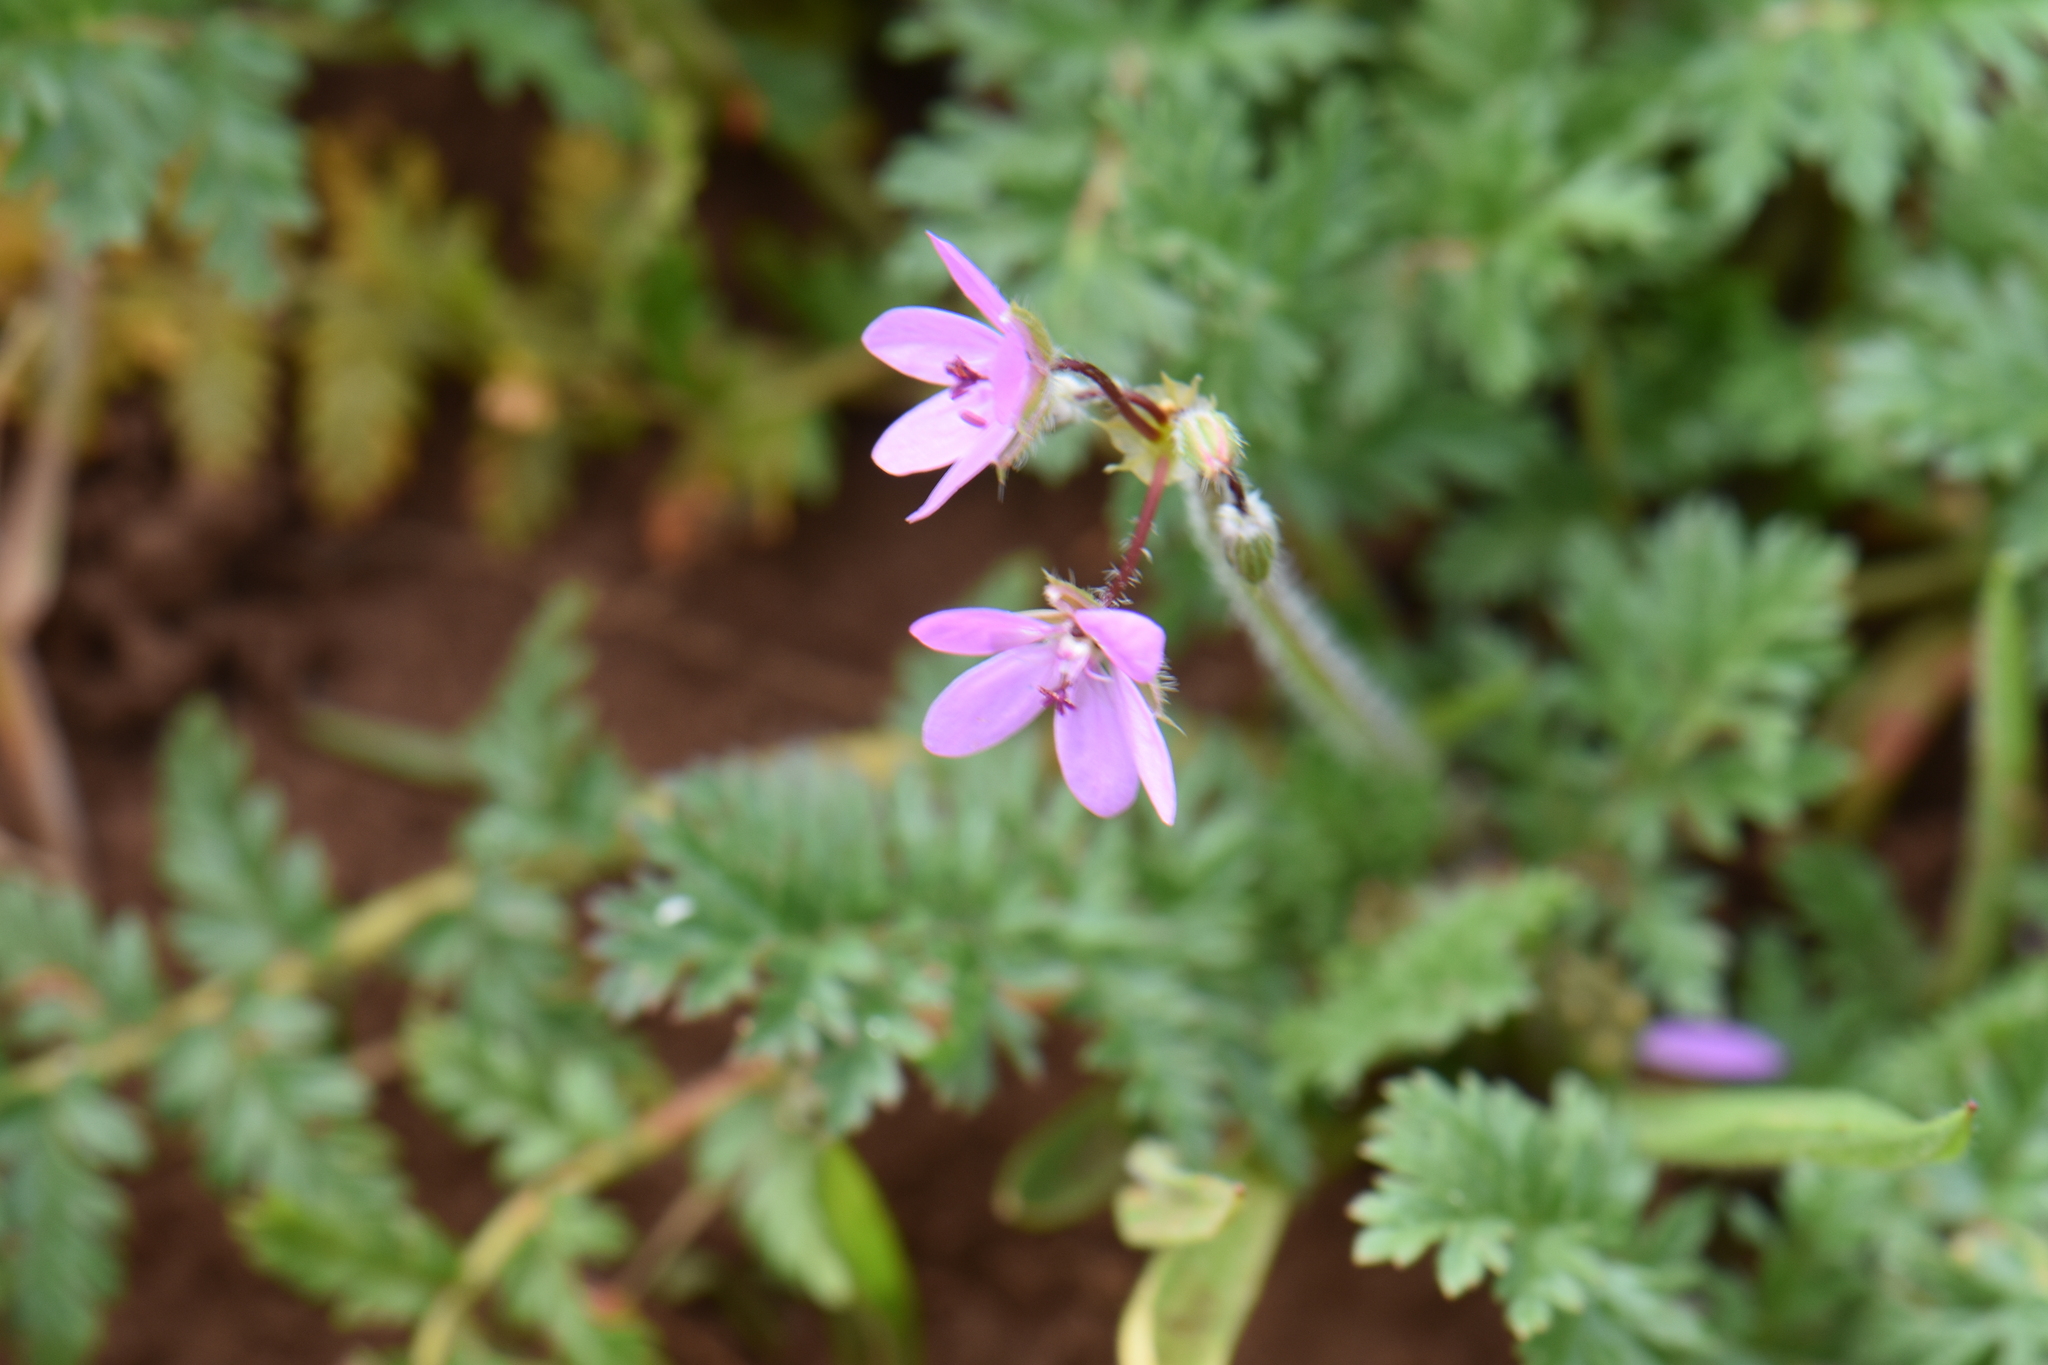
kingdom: Plantae
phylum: Tracheophyta
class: Magnoliopsida
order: Geraniales
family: Geraniaceae
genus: Erodium
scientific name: Erodium cicutarium
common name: Common stork's-bill
